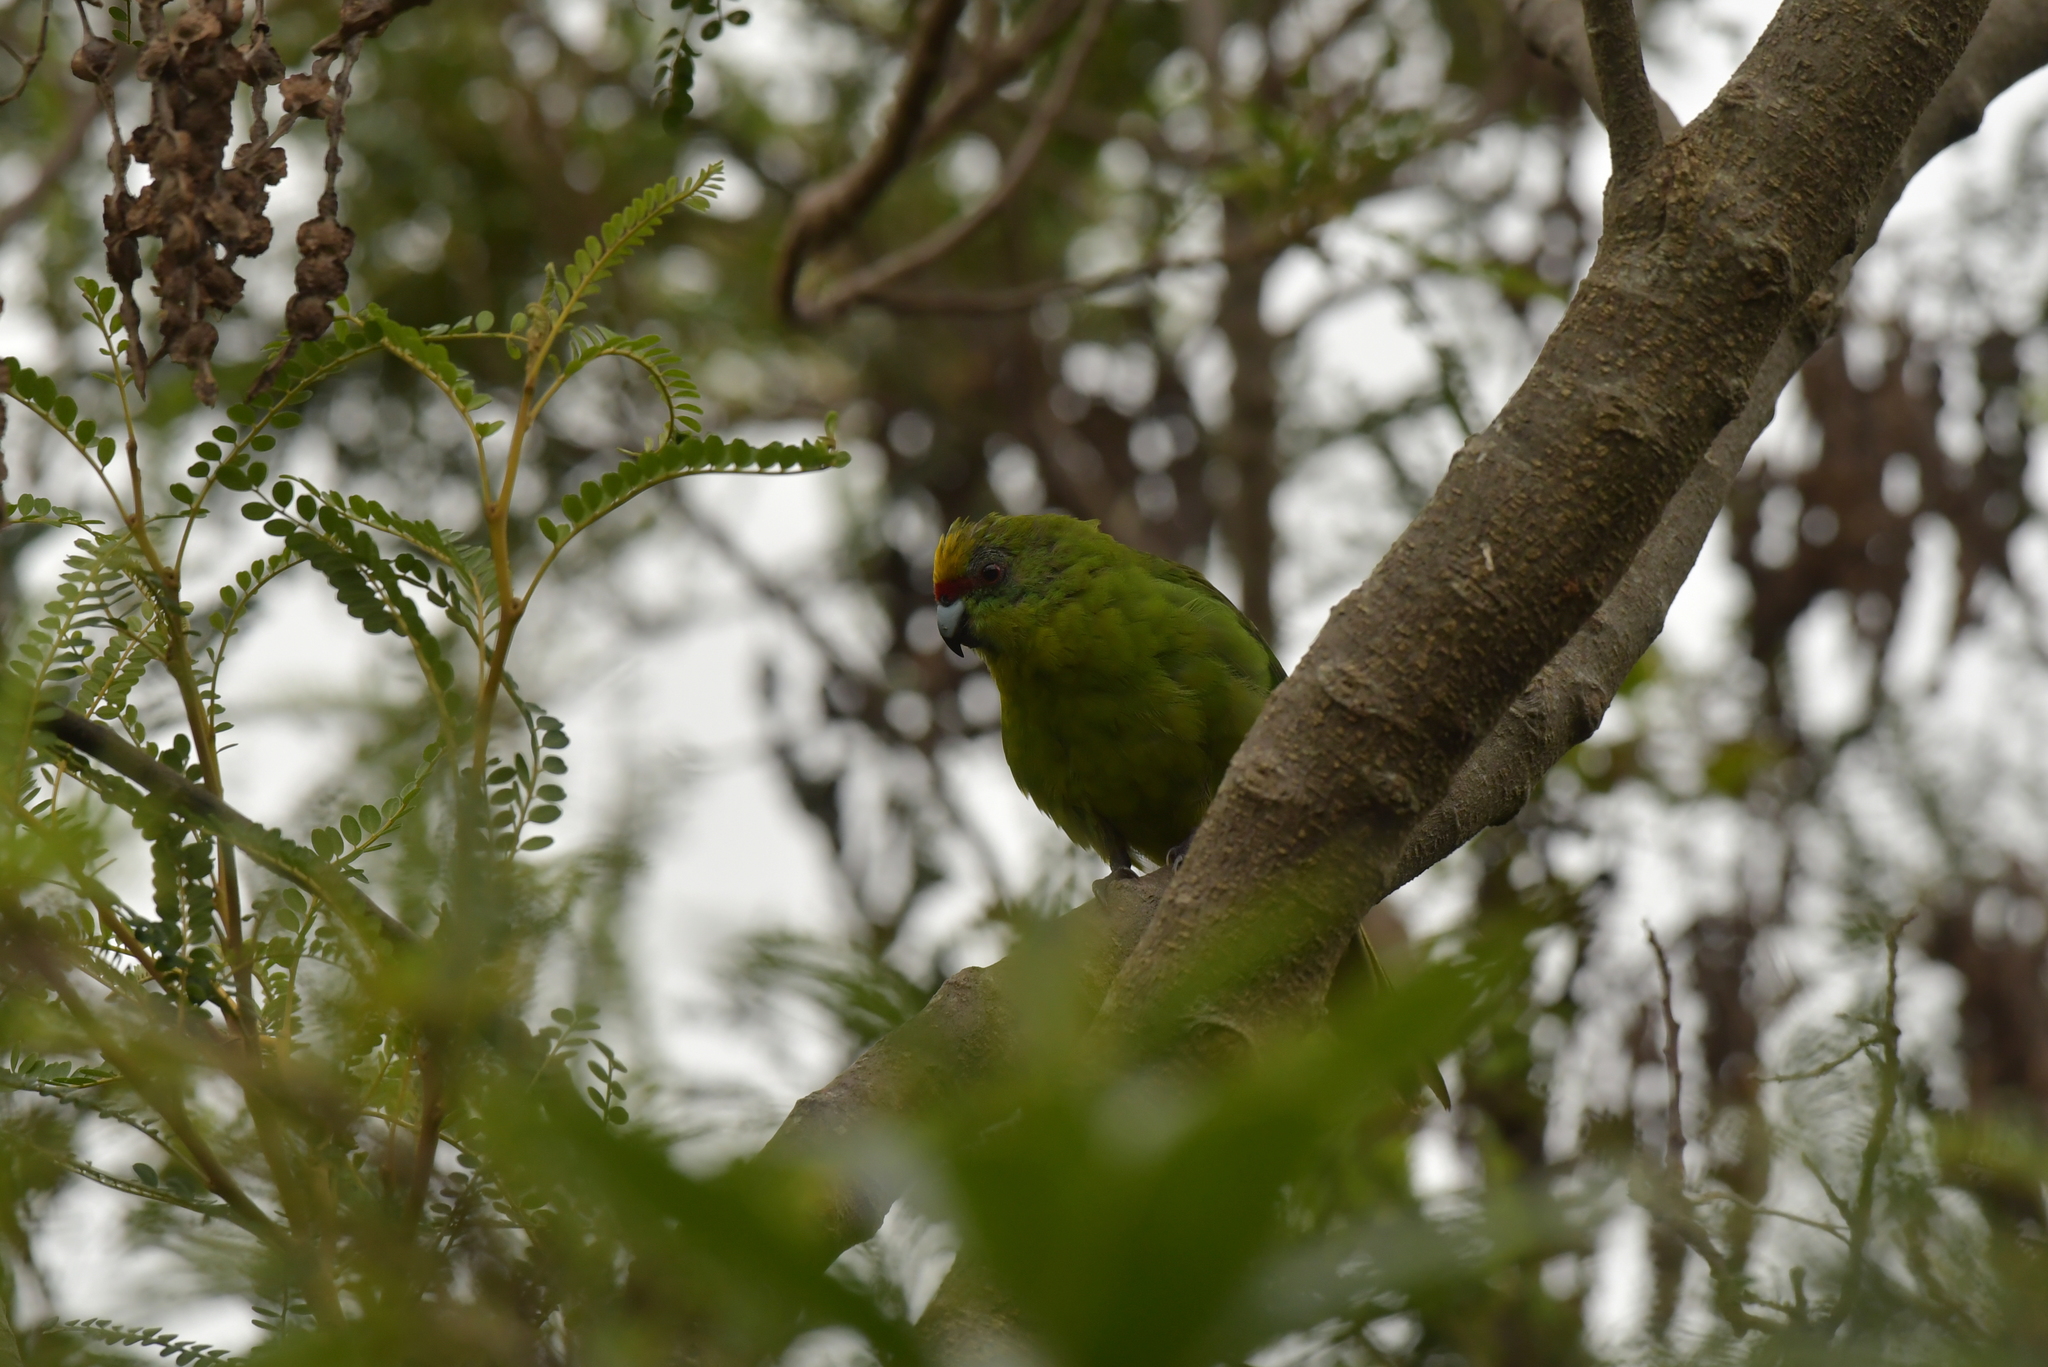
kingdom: Animalia
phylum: Chordata
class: Aves
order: Psittaciformes
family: Psittacidae
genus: Cyanoramphus
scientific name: Cyanoramphus auriceps
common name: Yellow-crowned parakeet
